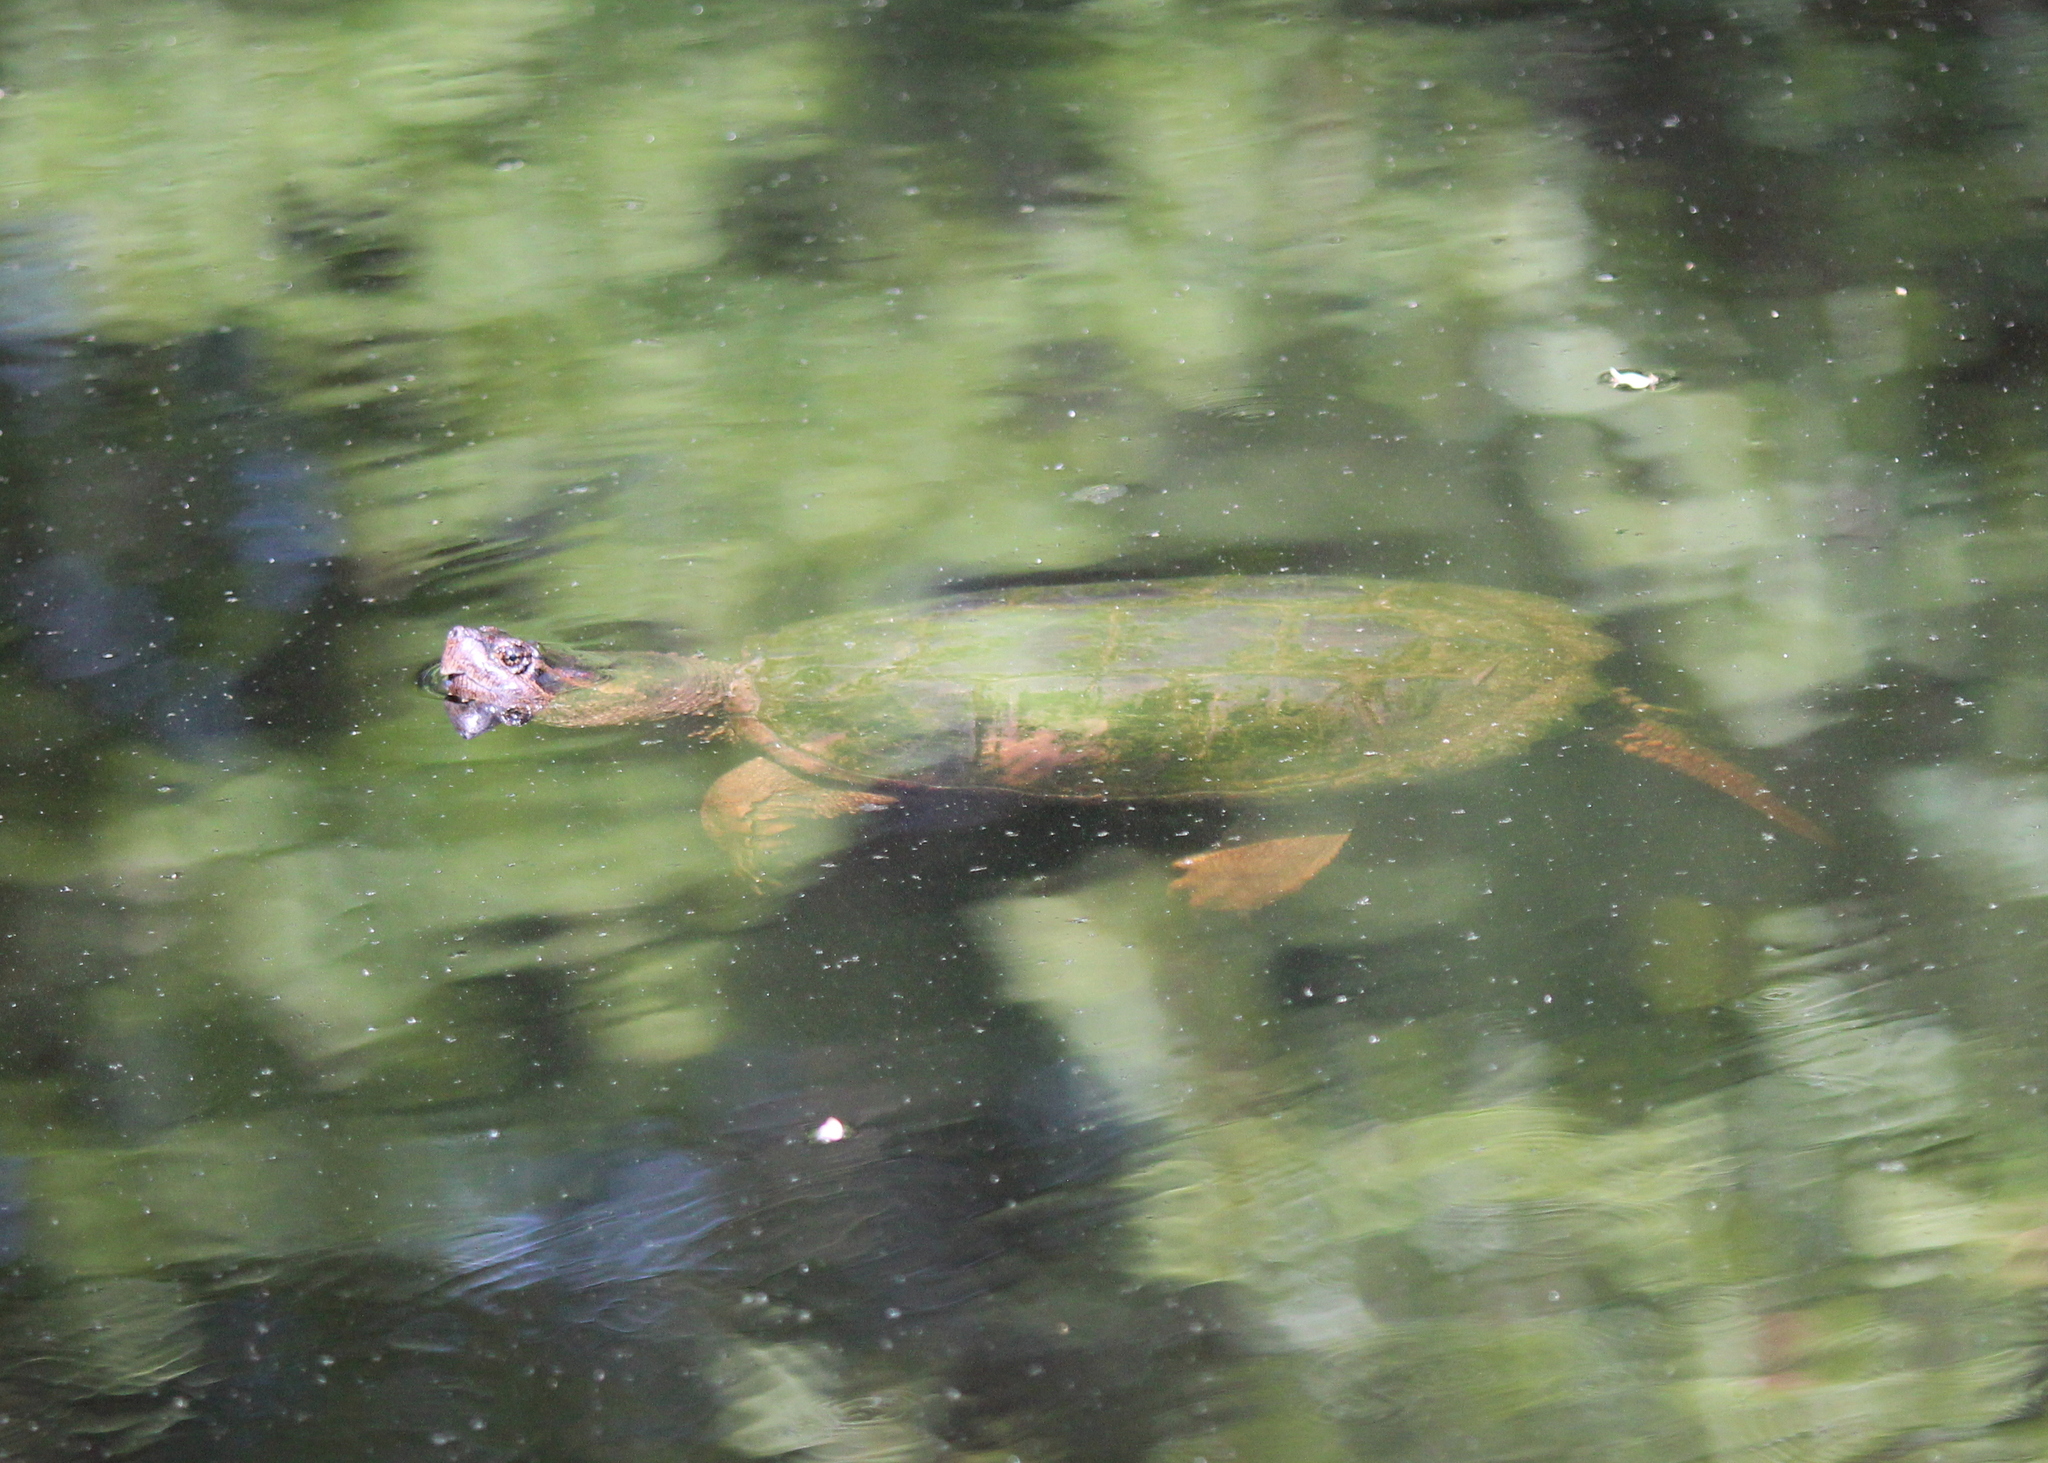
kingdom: Animalia
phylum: Chordata
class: Testudines
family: Chelydridae
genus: Chelydra
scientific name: Chelydra serpentina
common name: Common snapping turtle
